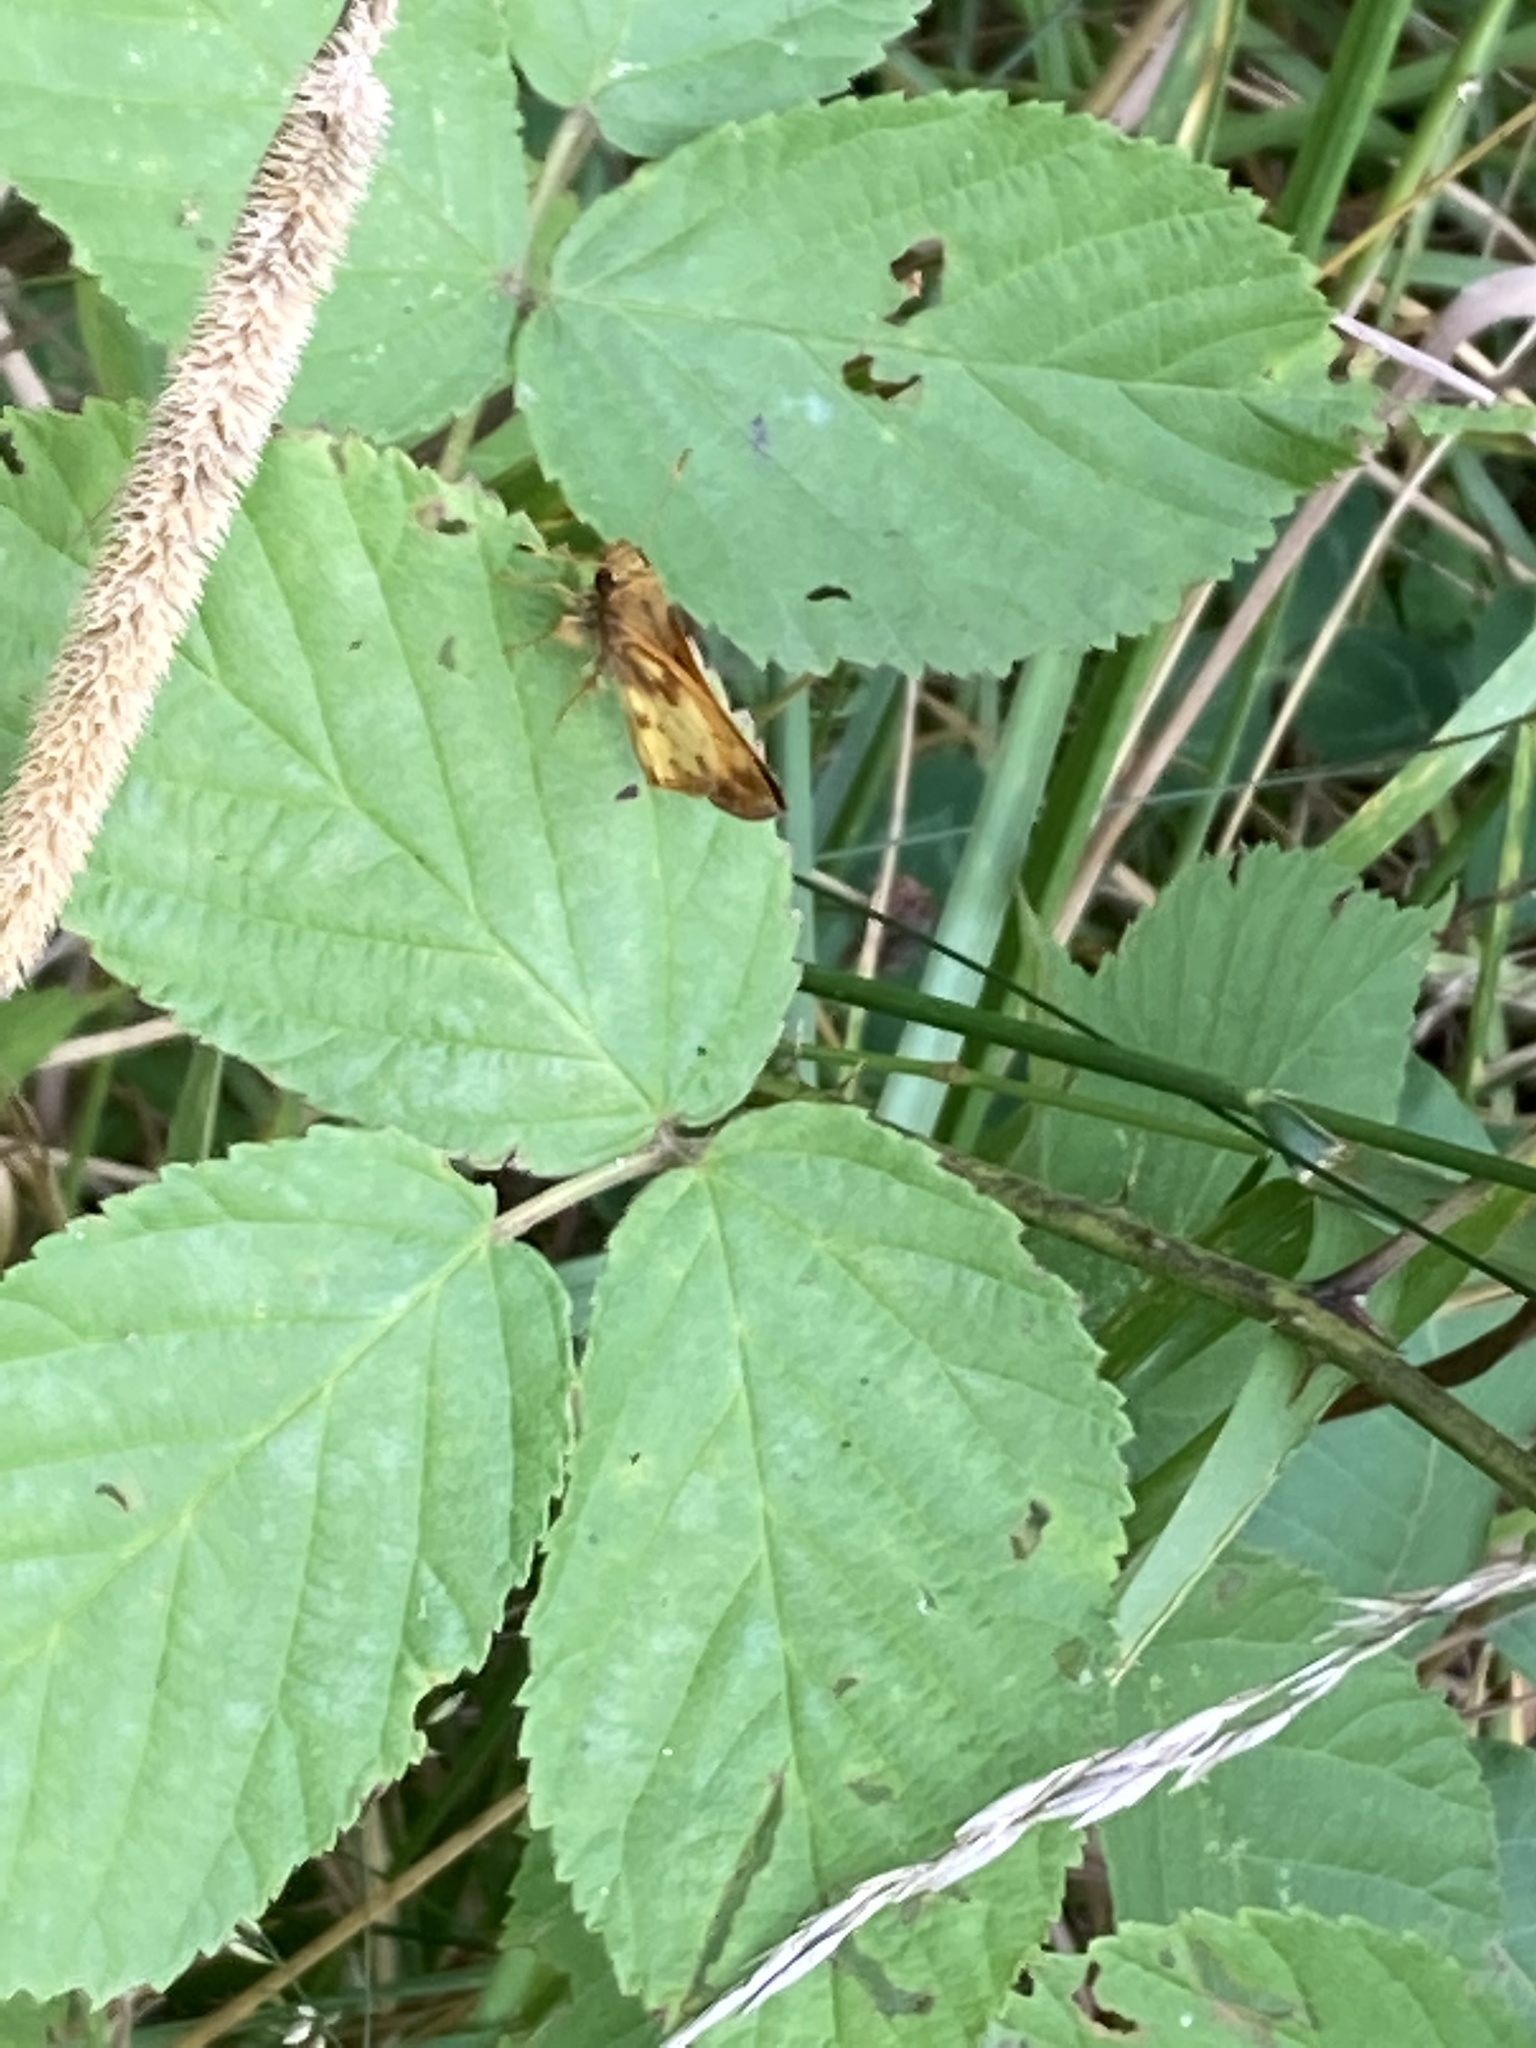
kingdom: Animalia
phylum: Arthropoda
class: Insecta
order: Lepidoptera
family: Hesperiidae
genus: Lon
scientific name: Lon zabulon
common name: Zabulon skipper
